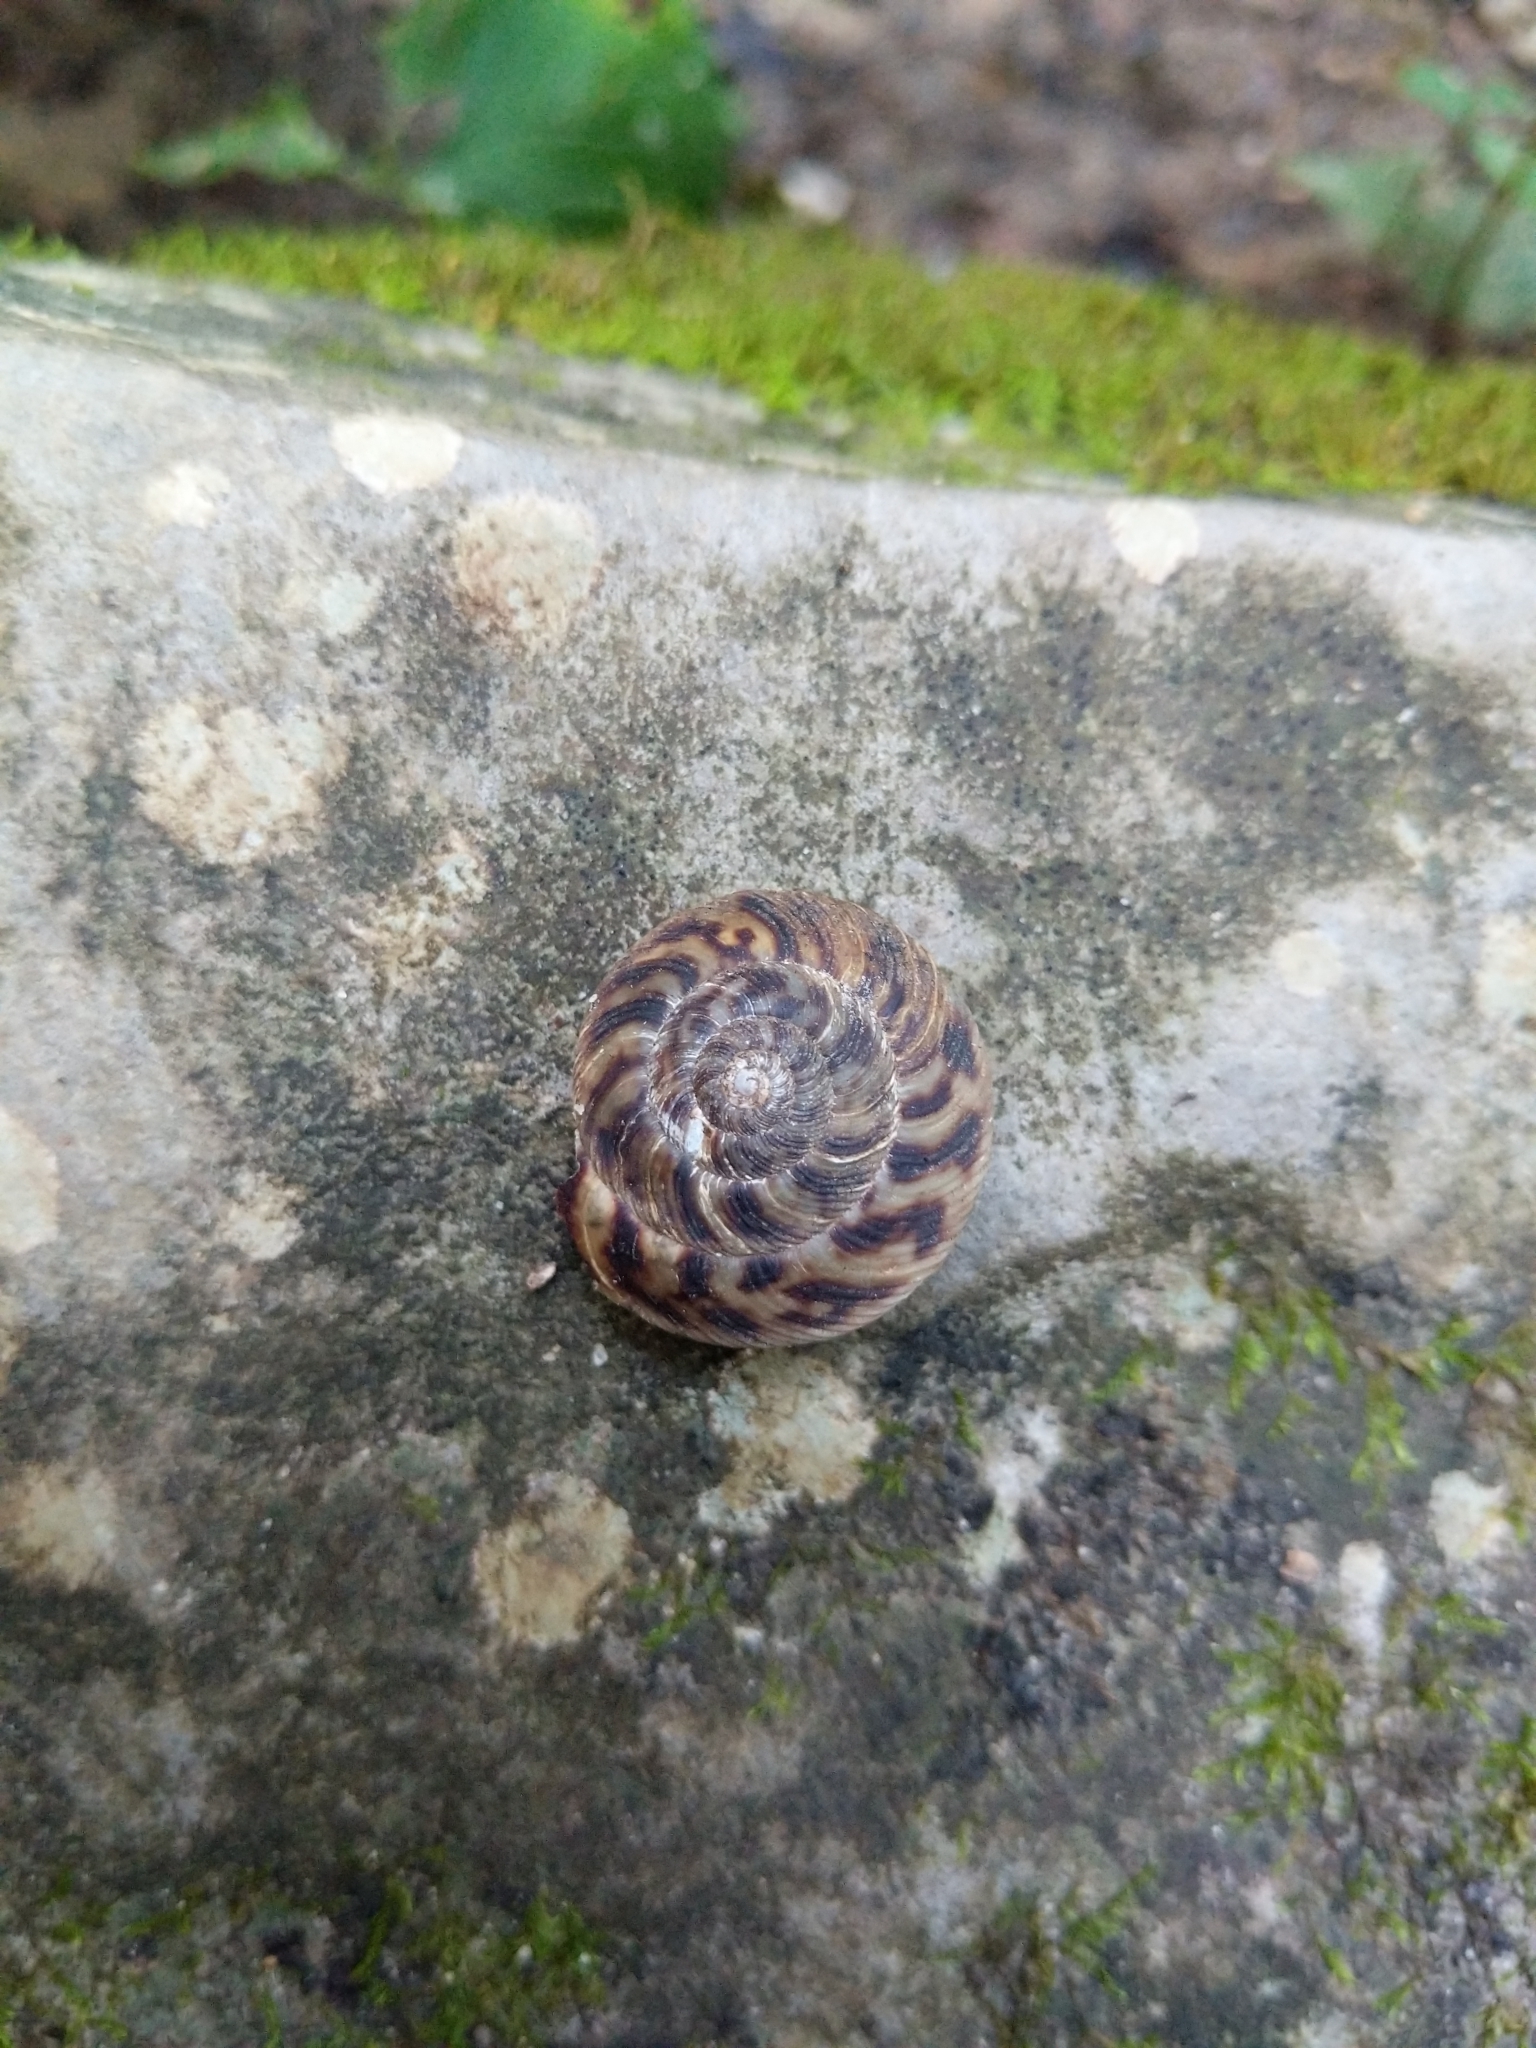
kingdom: Animalia
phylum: Mollusca
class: Gastropoda
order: Stylommatophora
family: Discidae
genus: Anguispira
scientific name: Anguispira alternata
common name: Flamed tigersnail
